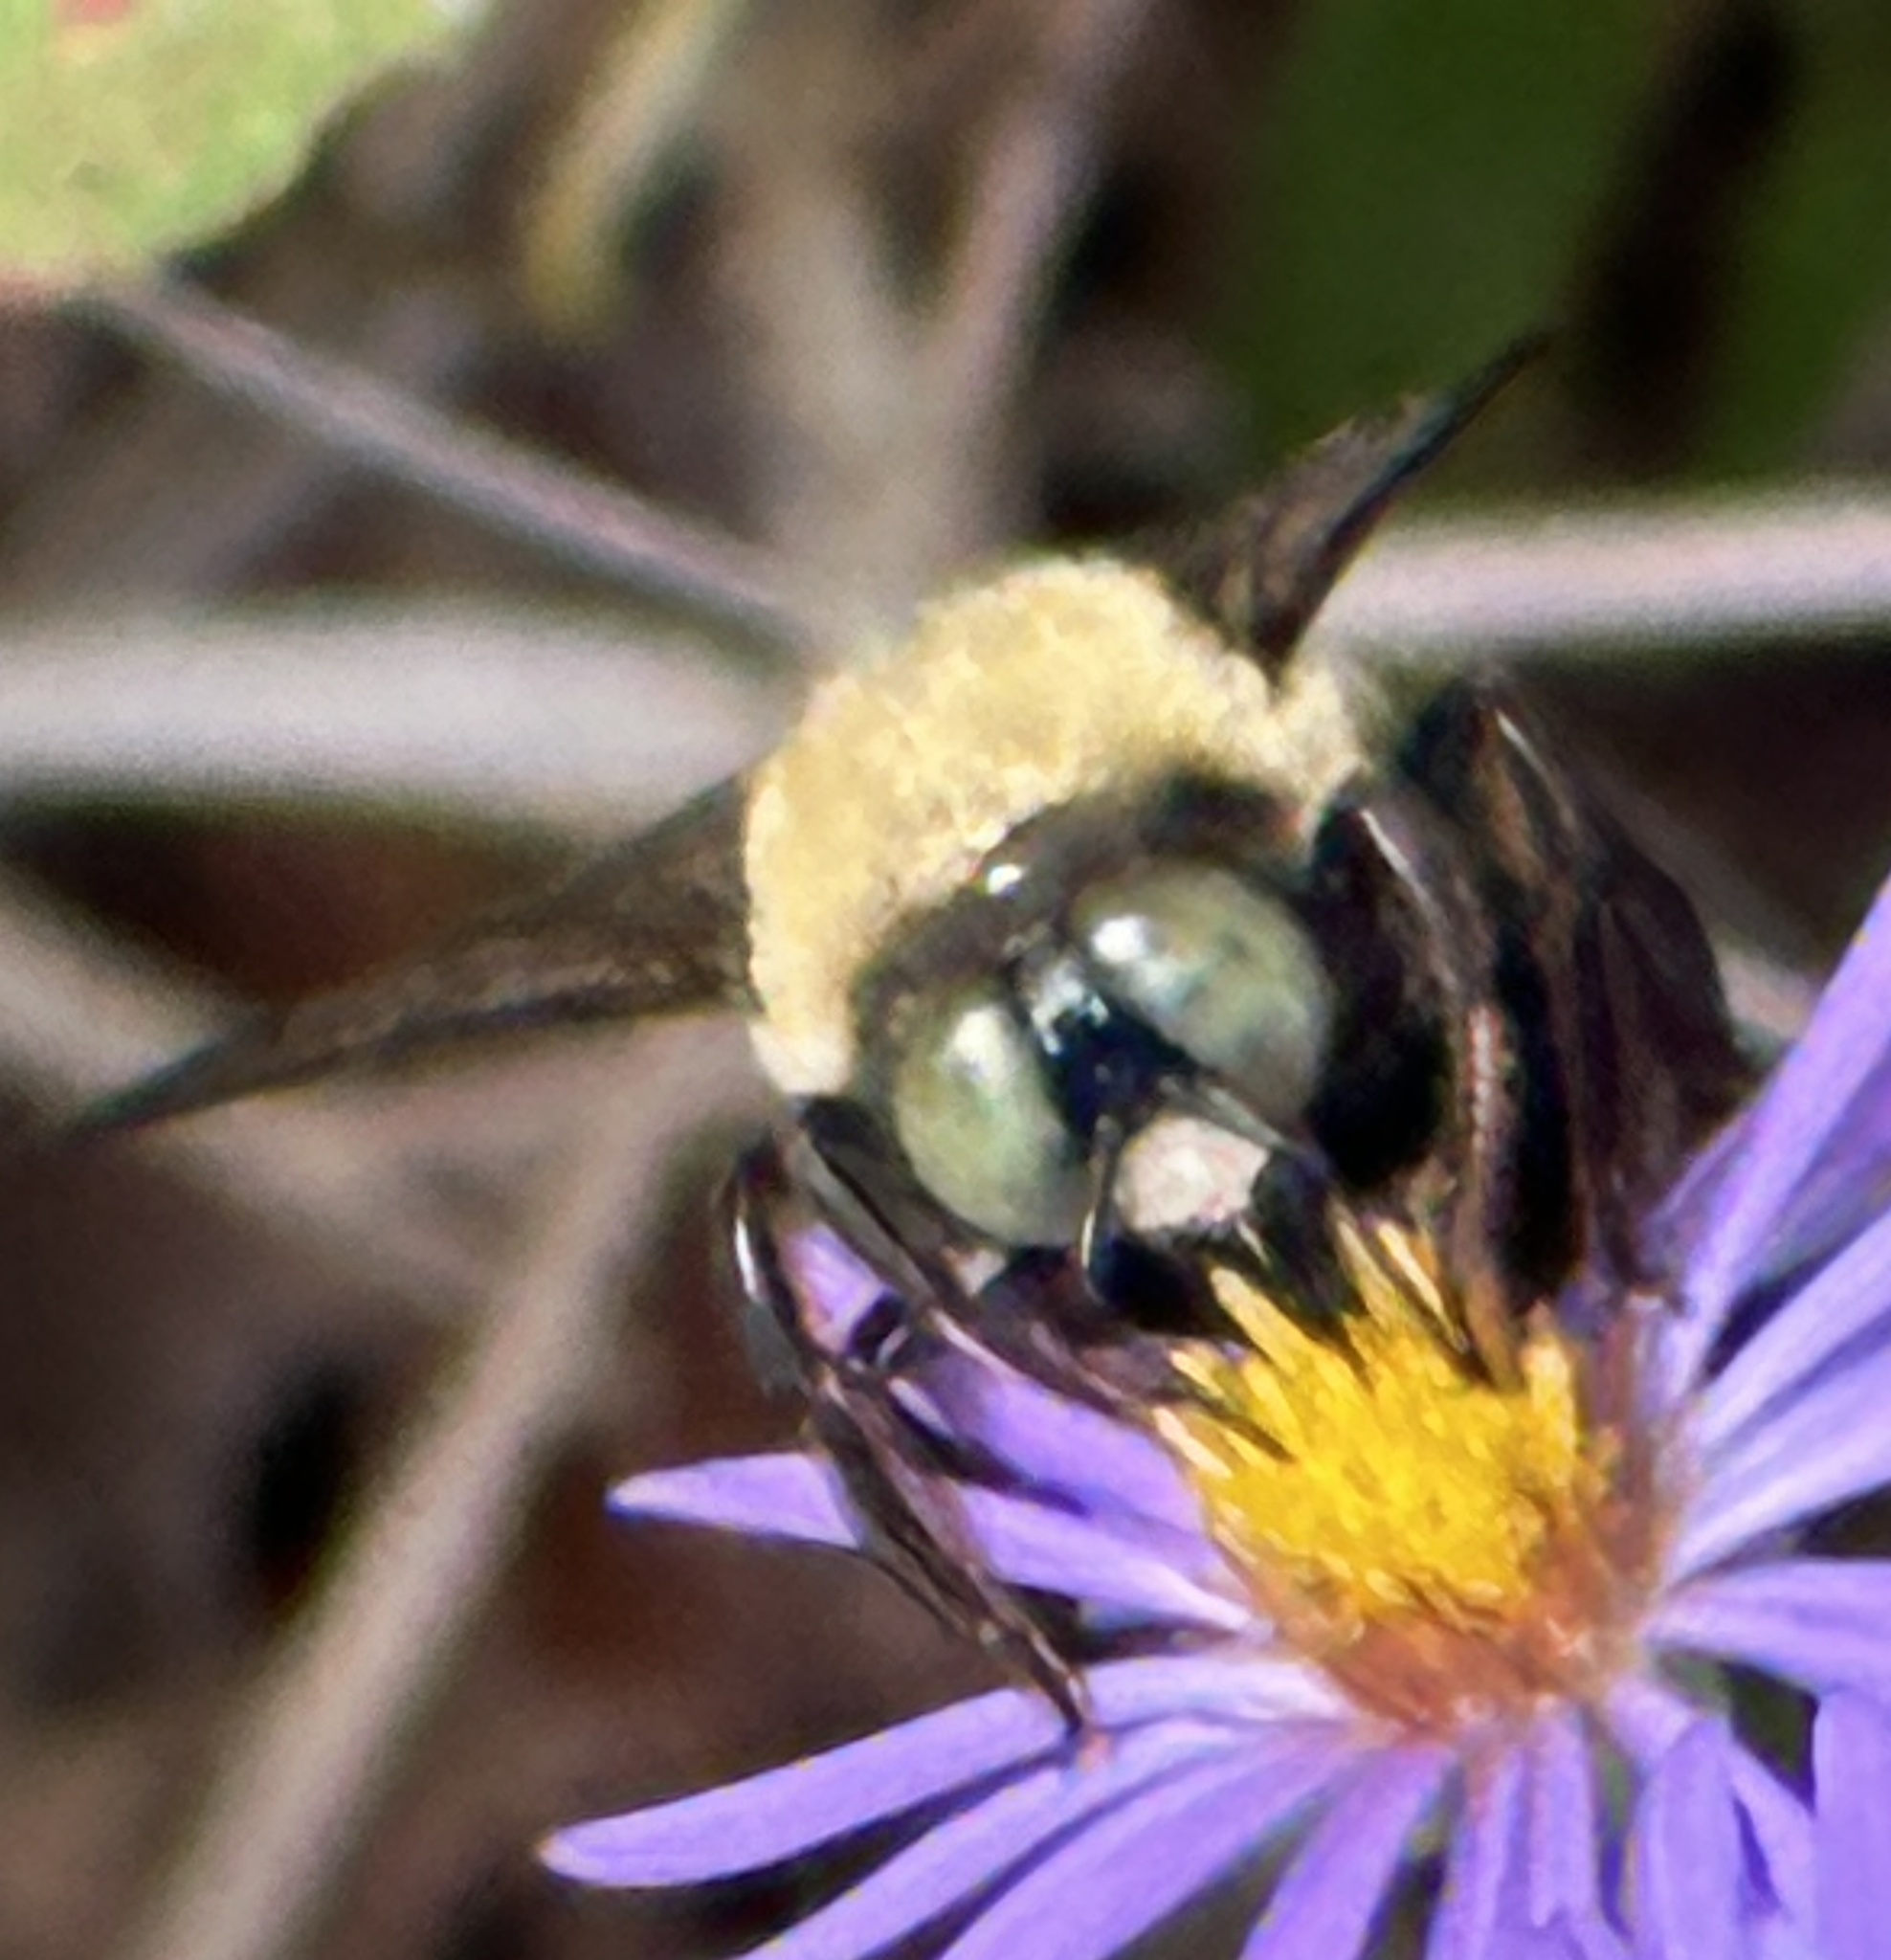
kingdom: Animalia
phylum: Arthropoda
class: Insecta
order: Hymenoptera
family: Apidae
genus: Xylocopa
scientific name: Xylocopa virginica
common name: Carpenter bee
